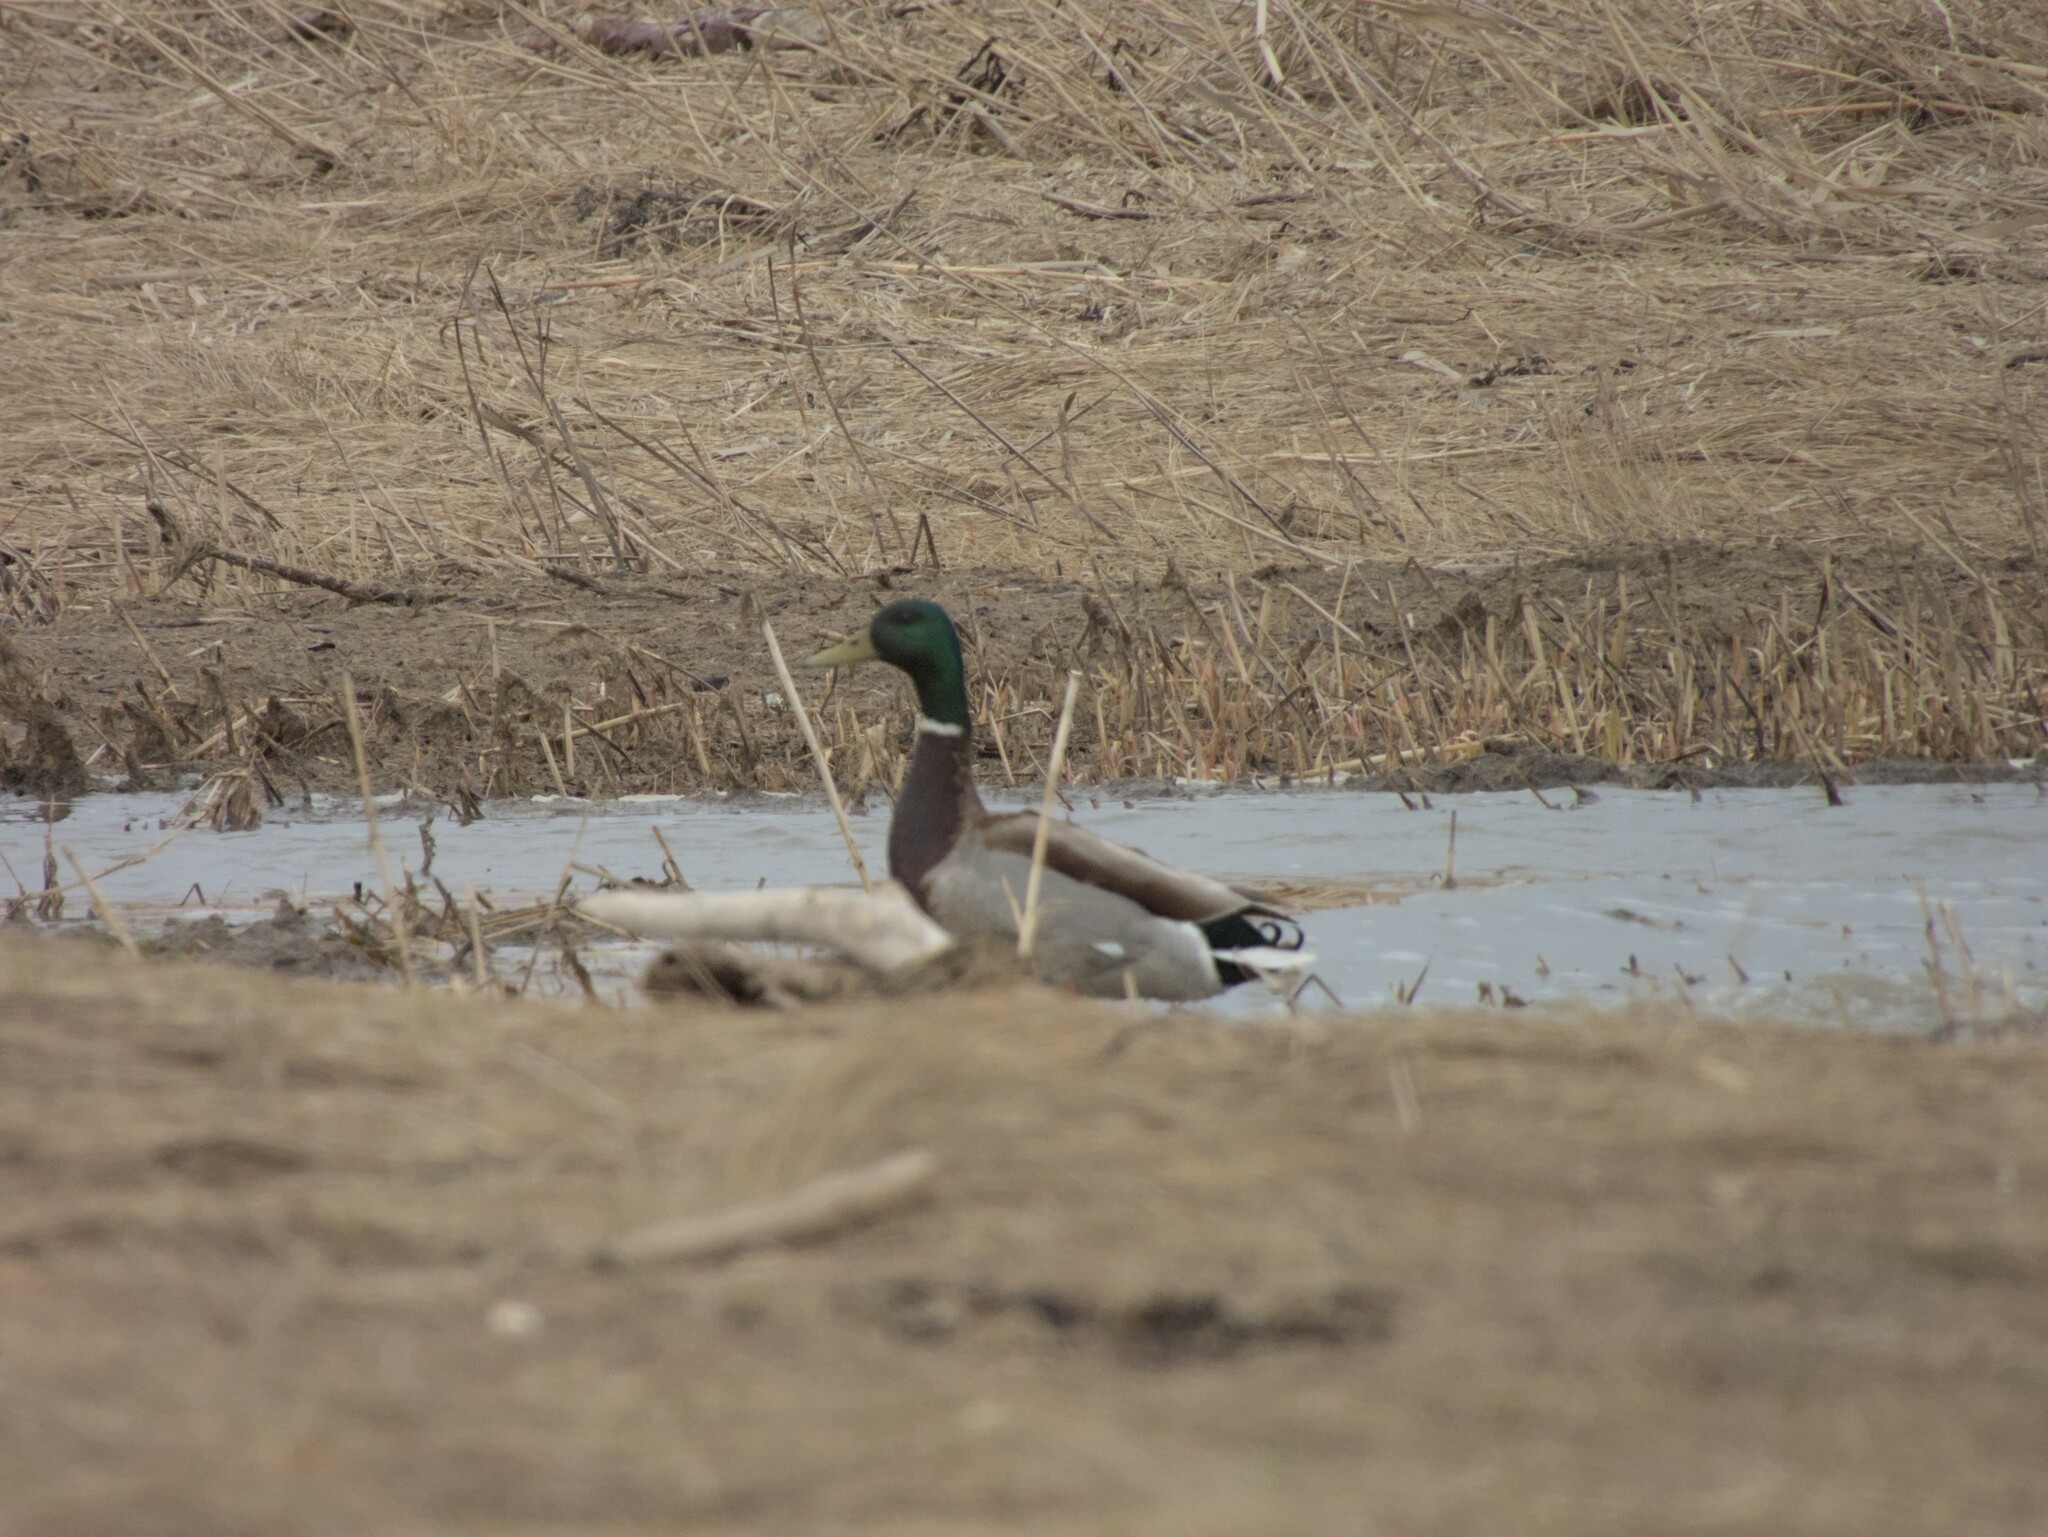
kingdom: Animalia
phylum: Chordata
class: Aves
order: Anseriformes
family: Anatidae
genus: Anas
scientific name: Anas platyrhynchos
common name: Mallard
